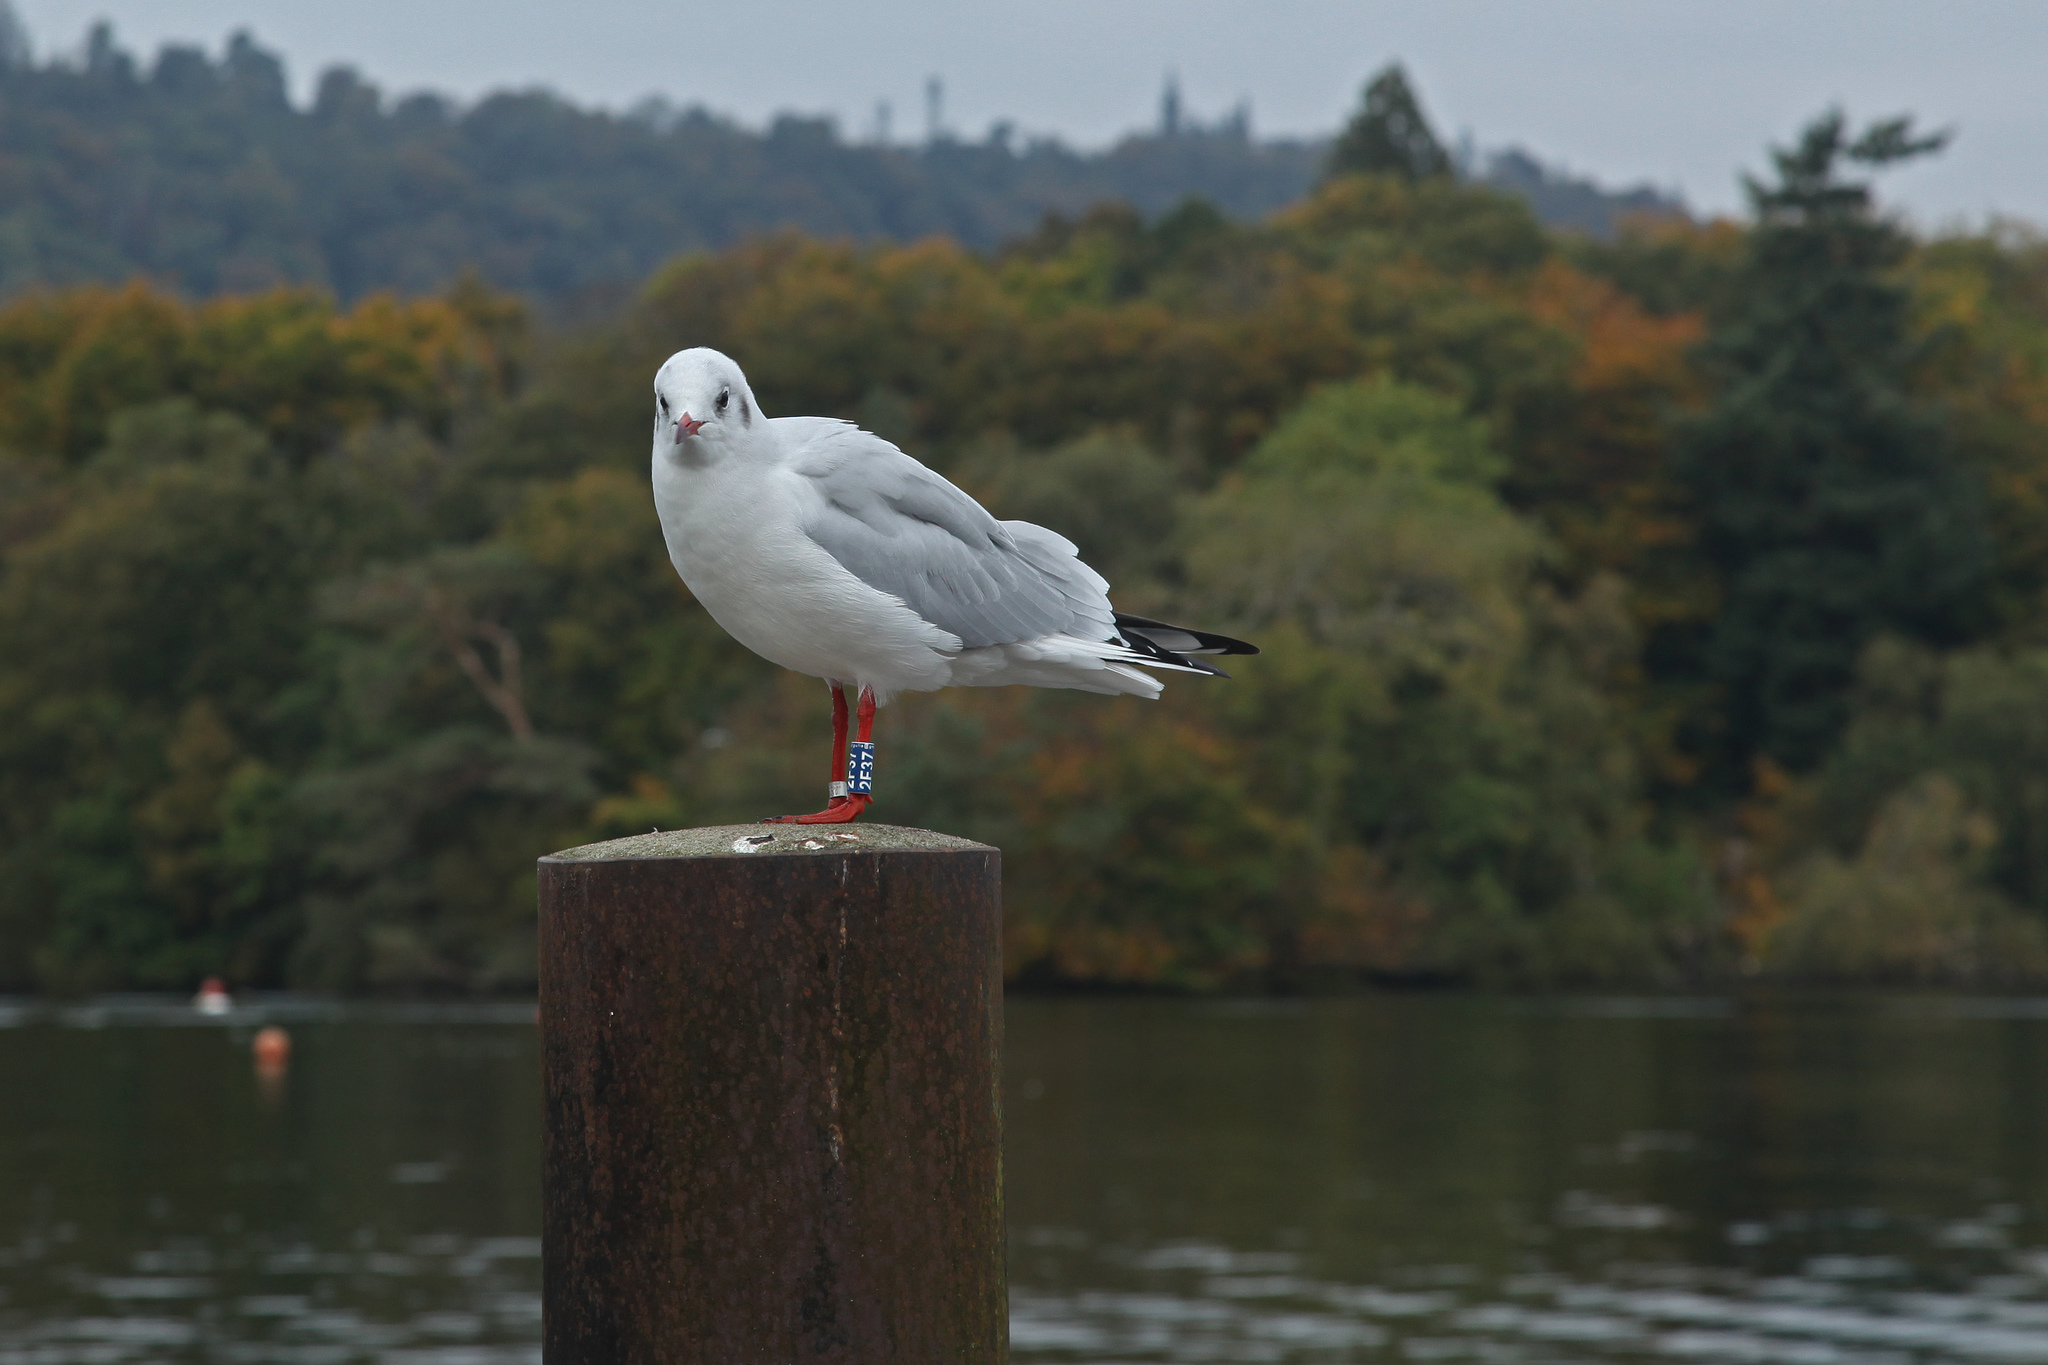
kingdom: Animalia
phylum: Chordata
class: Aves
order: Charadriiformes
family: Laridae
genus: Chroicocephalus
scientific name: Chroicocephalus ridibundus
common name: Black-headed gull
